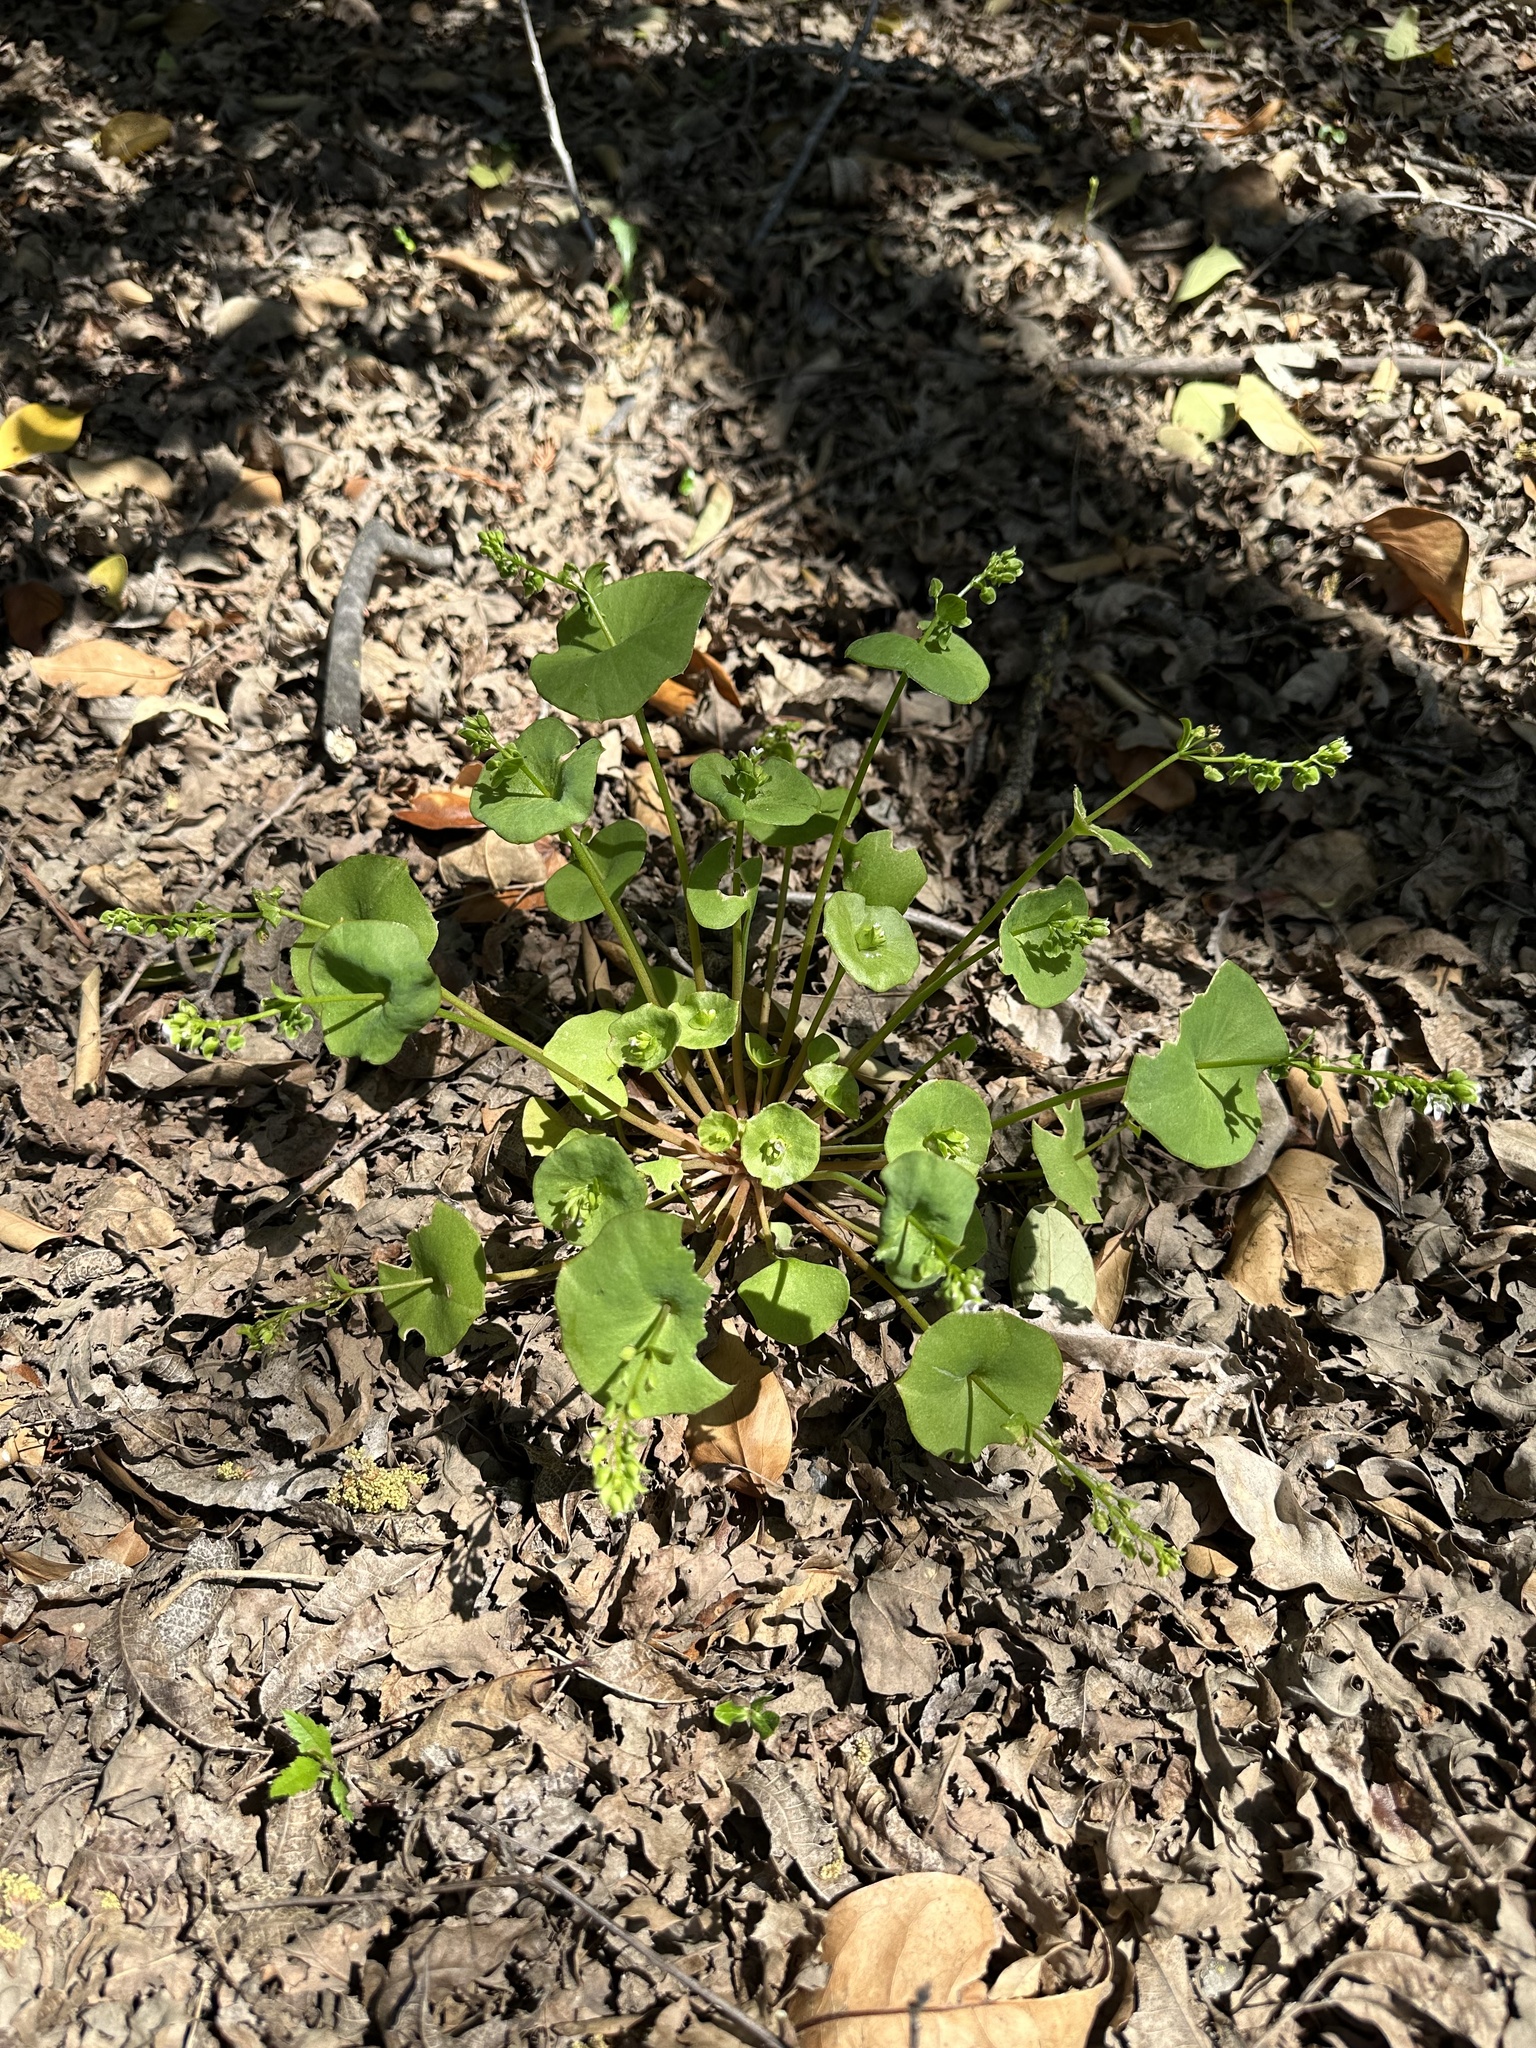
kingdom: Plantae
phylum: Tracheophyta
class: Magnoliopsida
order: Caryophyllales
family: Montiaceae
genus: Claytonia
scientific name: Claytonia perfoliata
